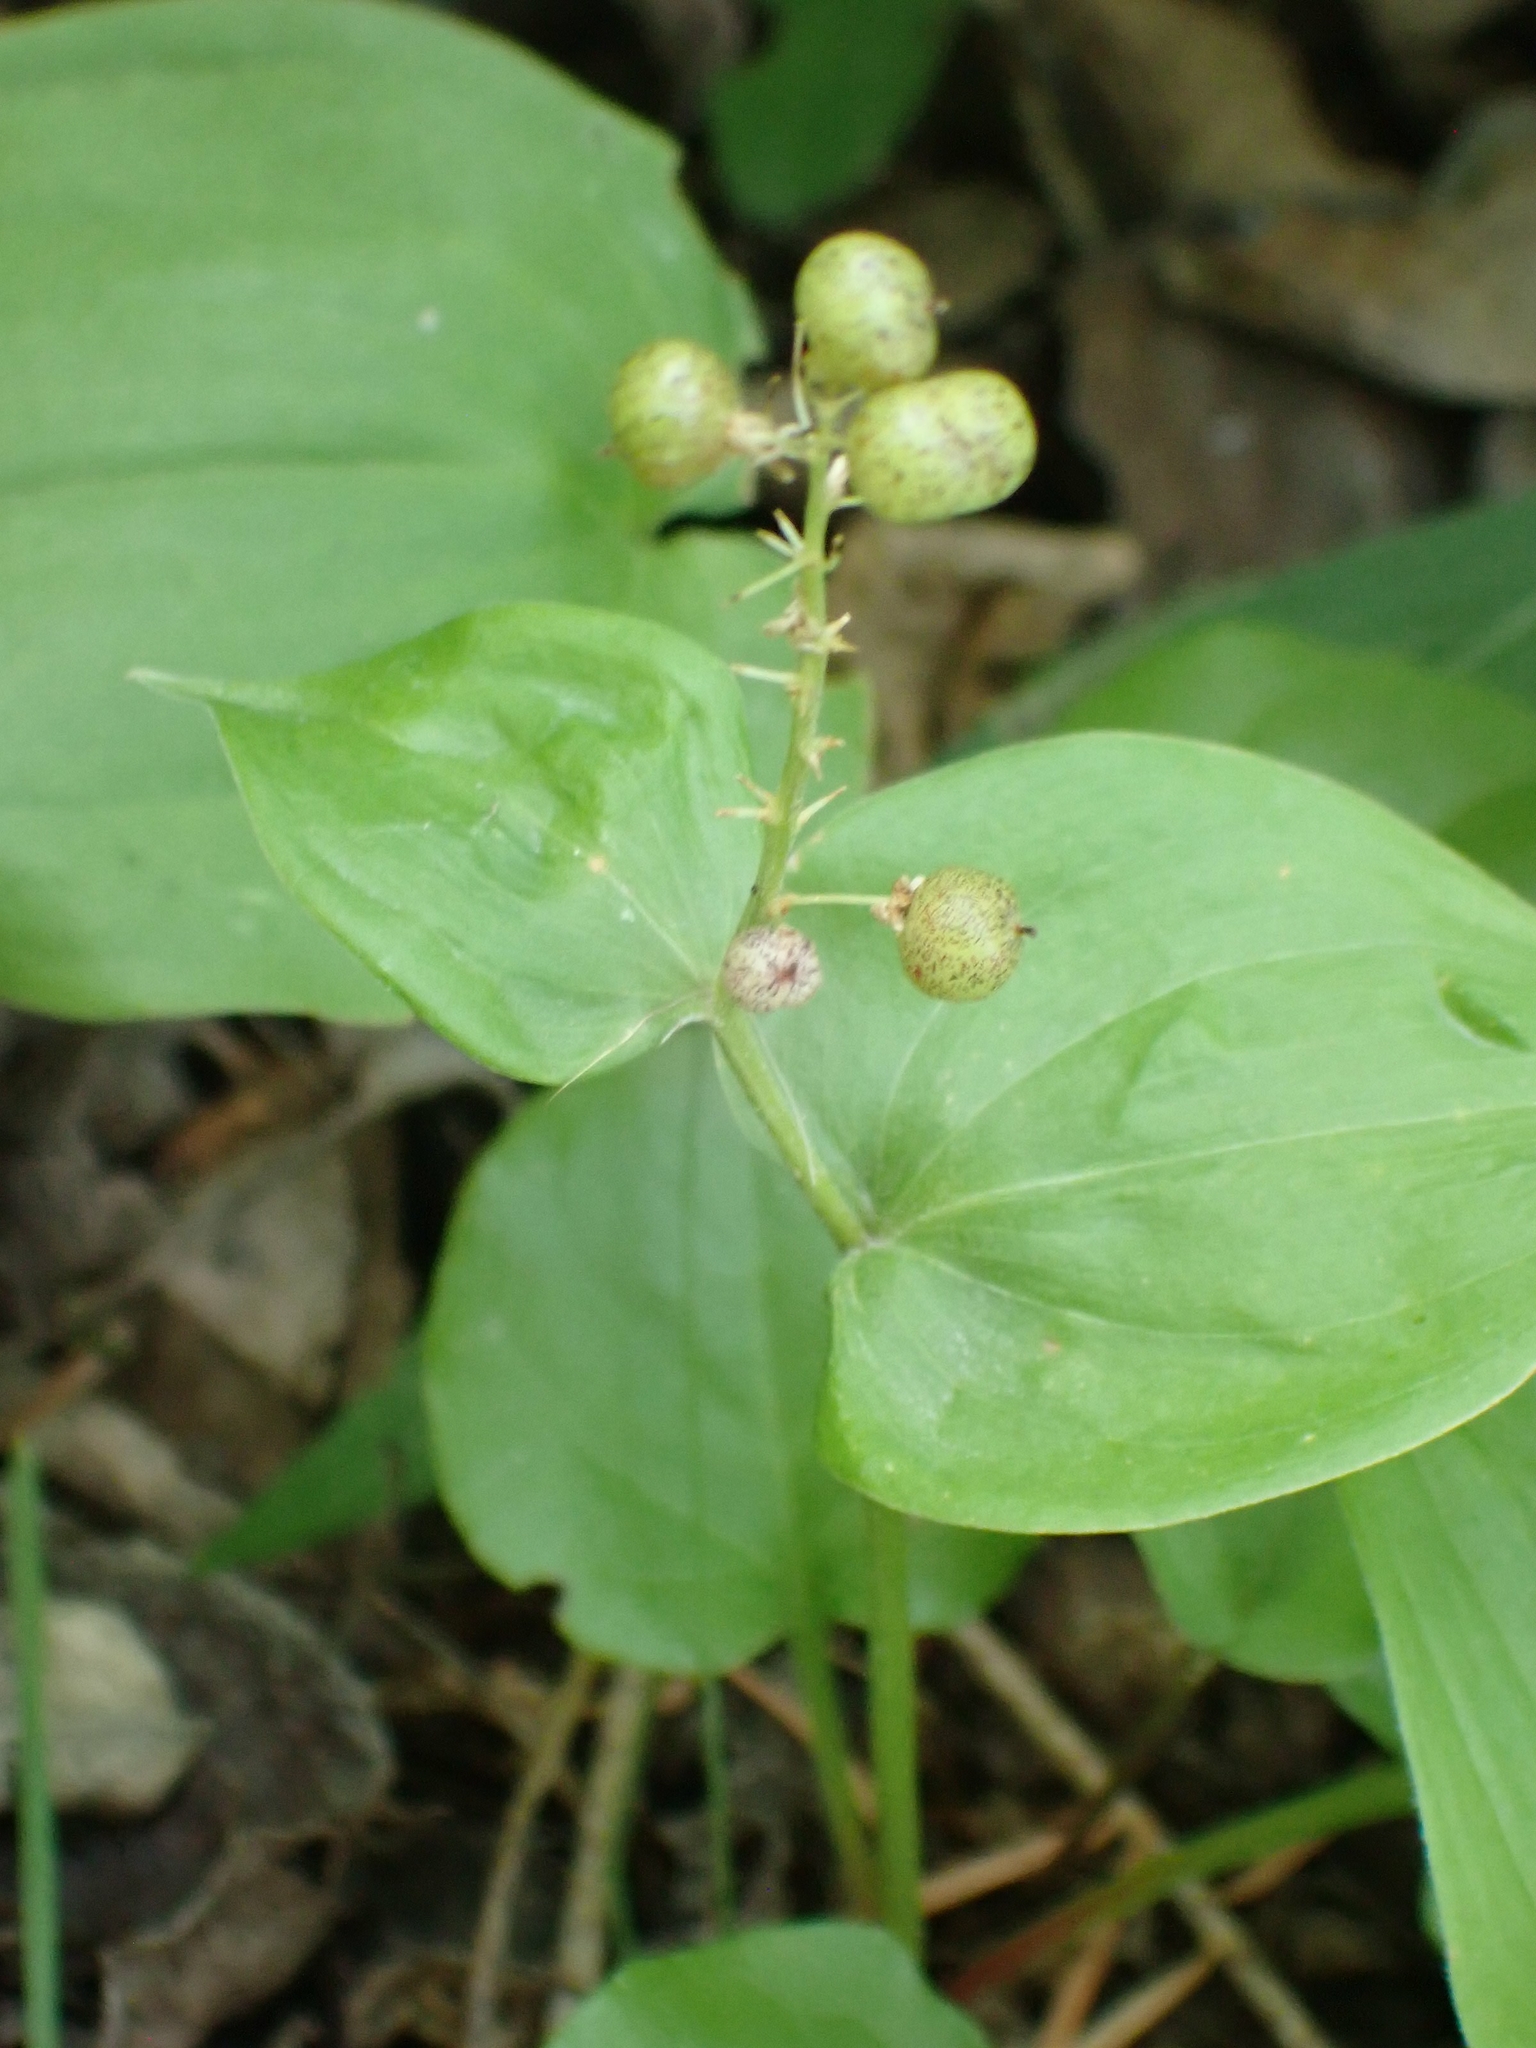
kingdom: Plantae
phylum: Tracheophyta
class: Liliopsida
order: Asparagales
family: Asparagaceae
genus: Maianthemum
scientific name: Maianthemum canadense
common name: False lily-of-the-valley
